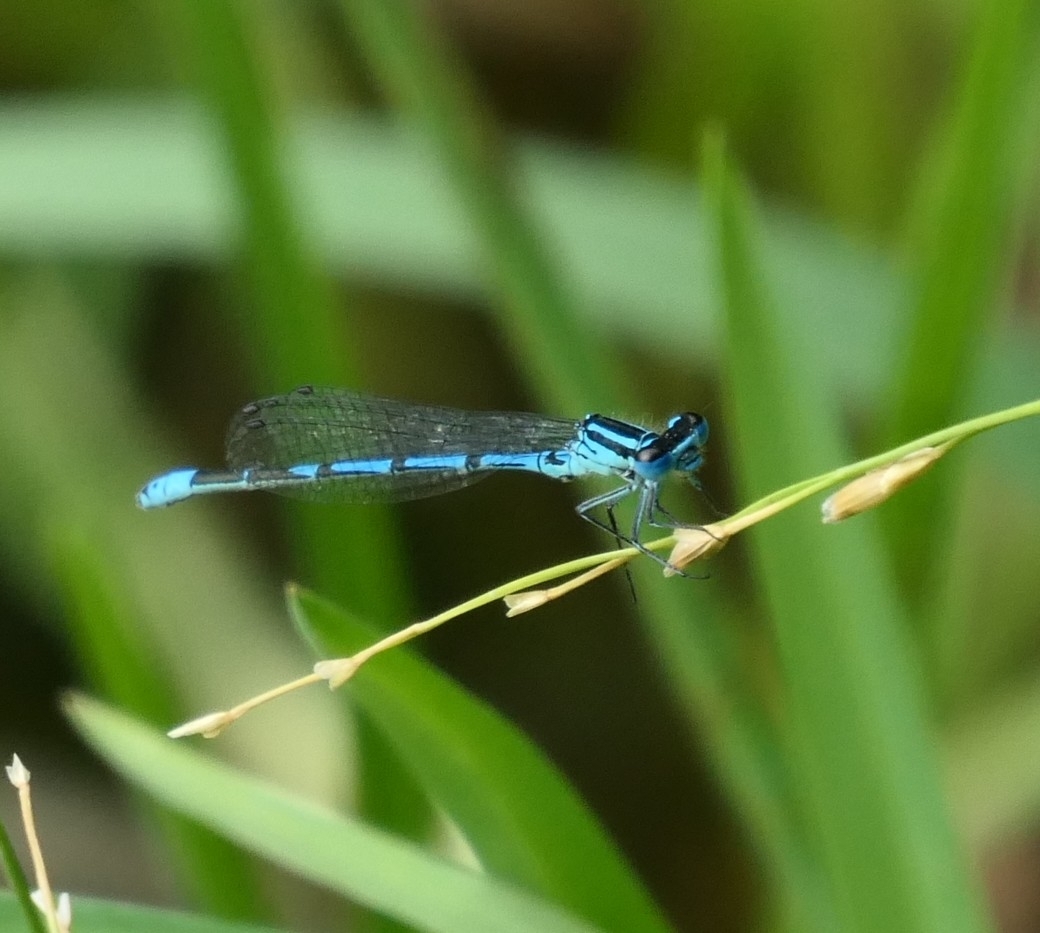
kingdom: Animalia
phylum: Arthropoda
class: Insecta
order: Odonata
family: Coenagrionidae
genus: Coenagrion
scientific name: Coenagrion puella
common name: Azure damselfly
